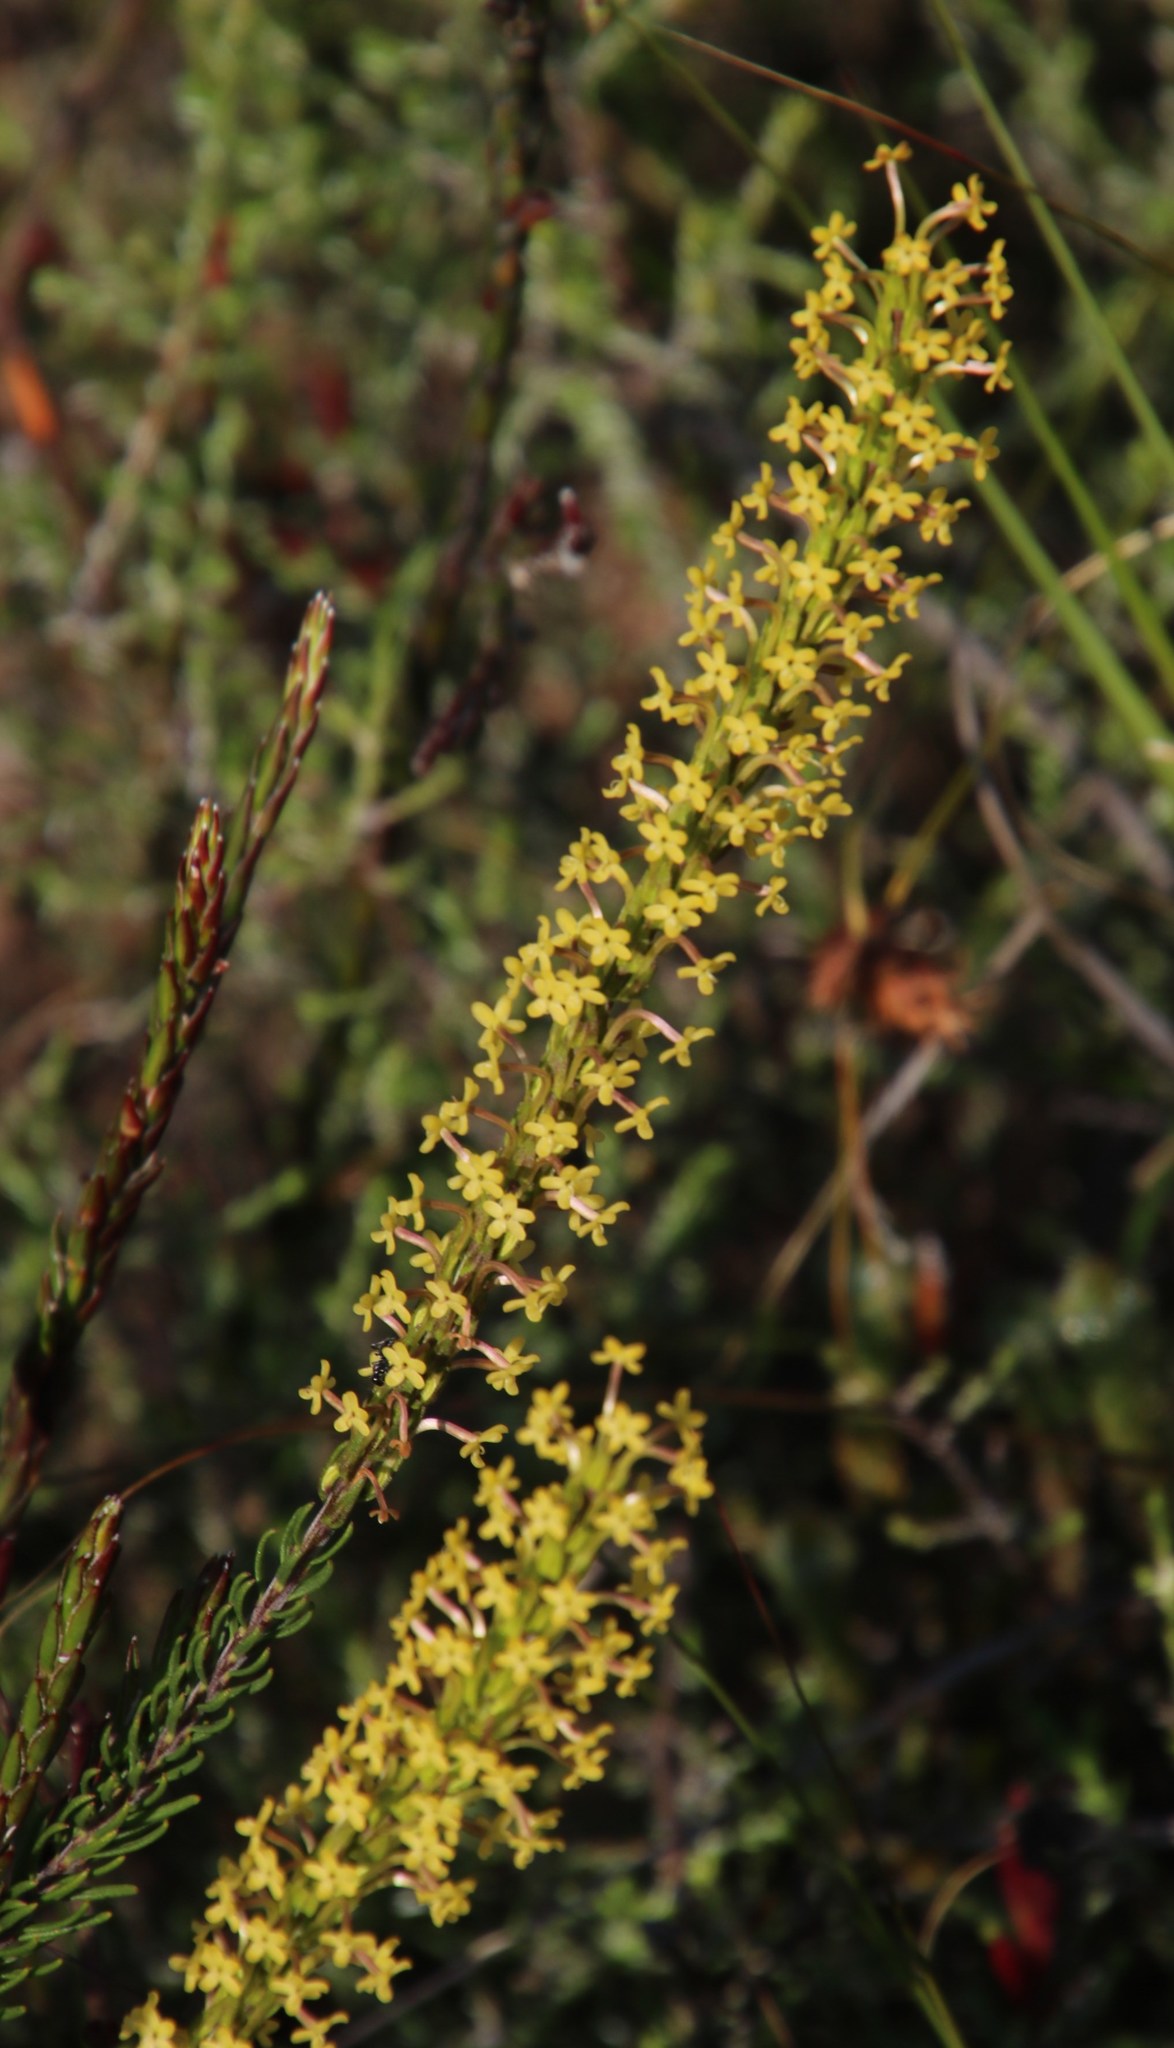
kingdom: Plantae
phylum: Tracheophyta
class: Magnoliopsida
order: Lamiales
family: Scrophulariaceae
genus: Microdon
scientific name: Microdon dubius
